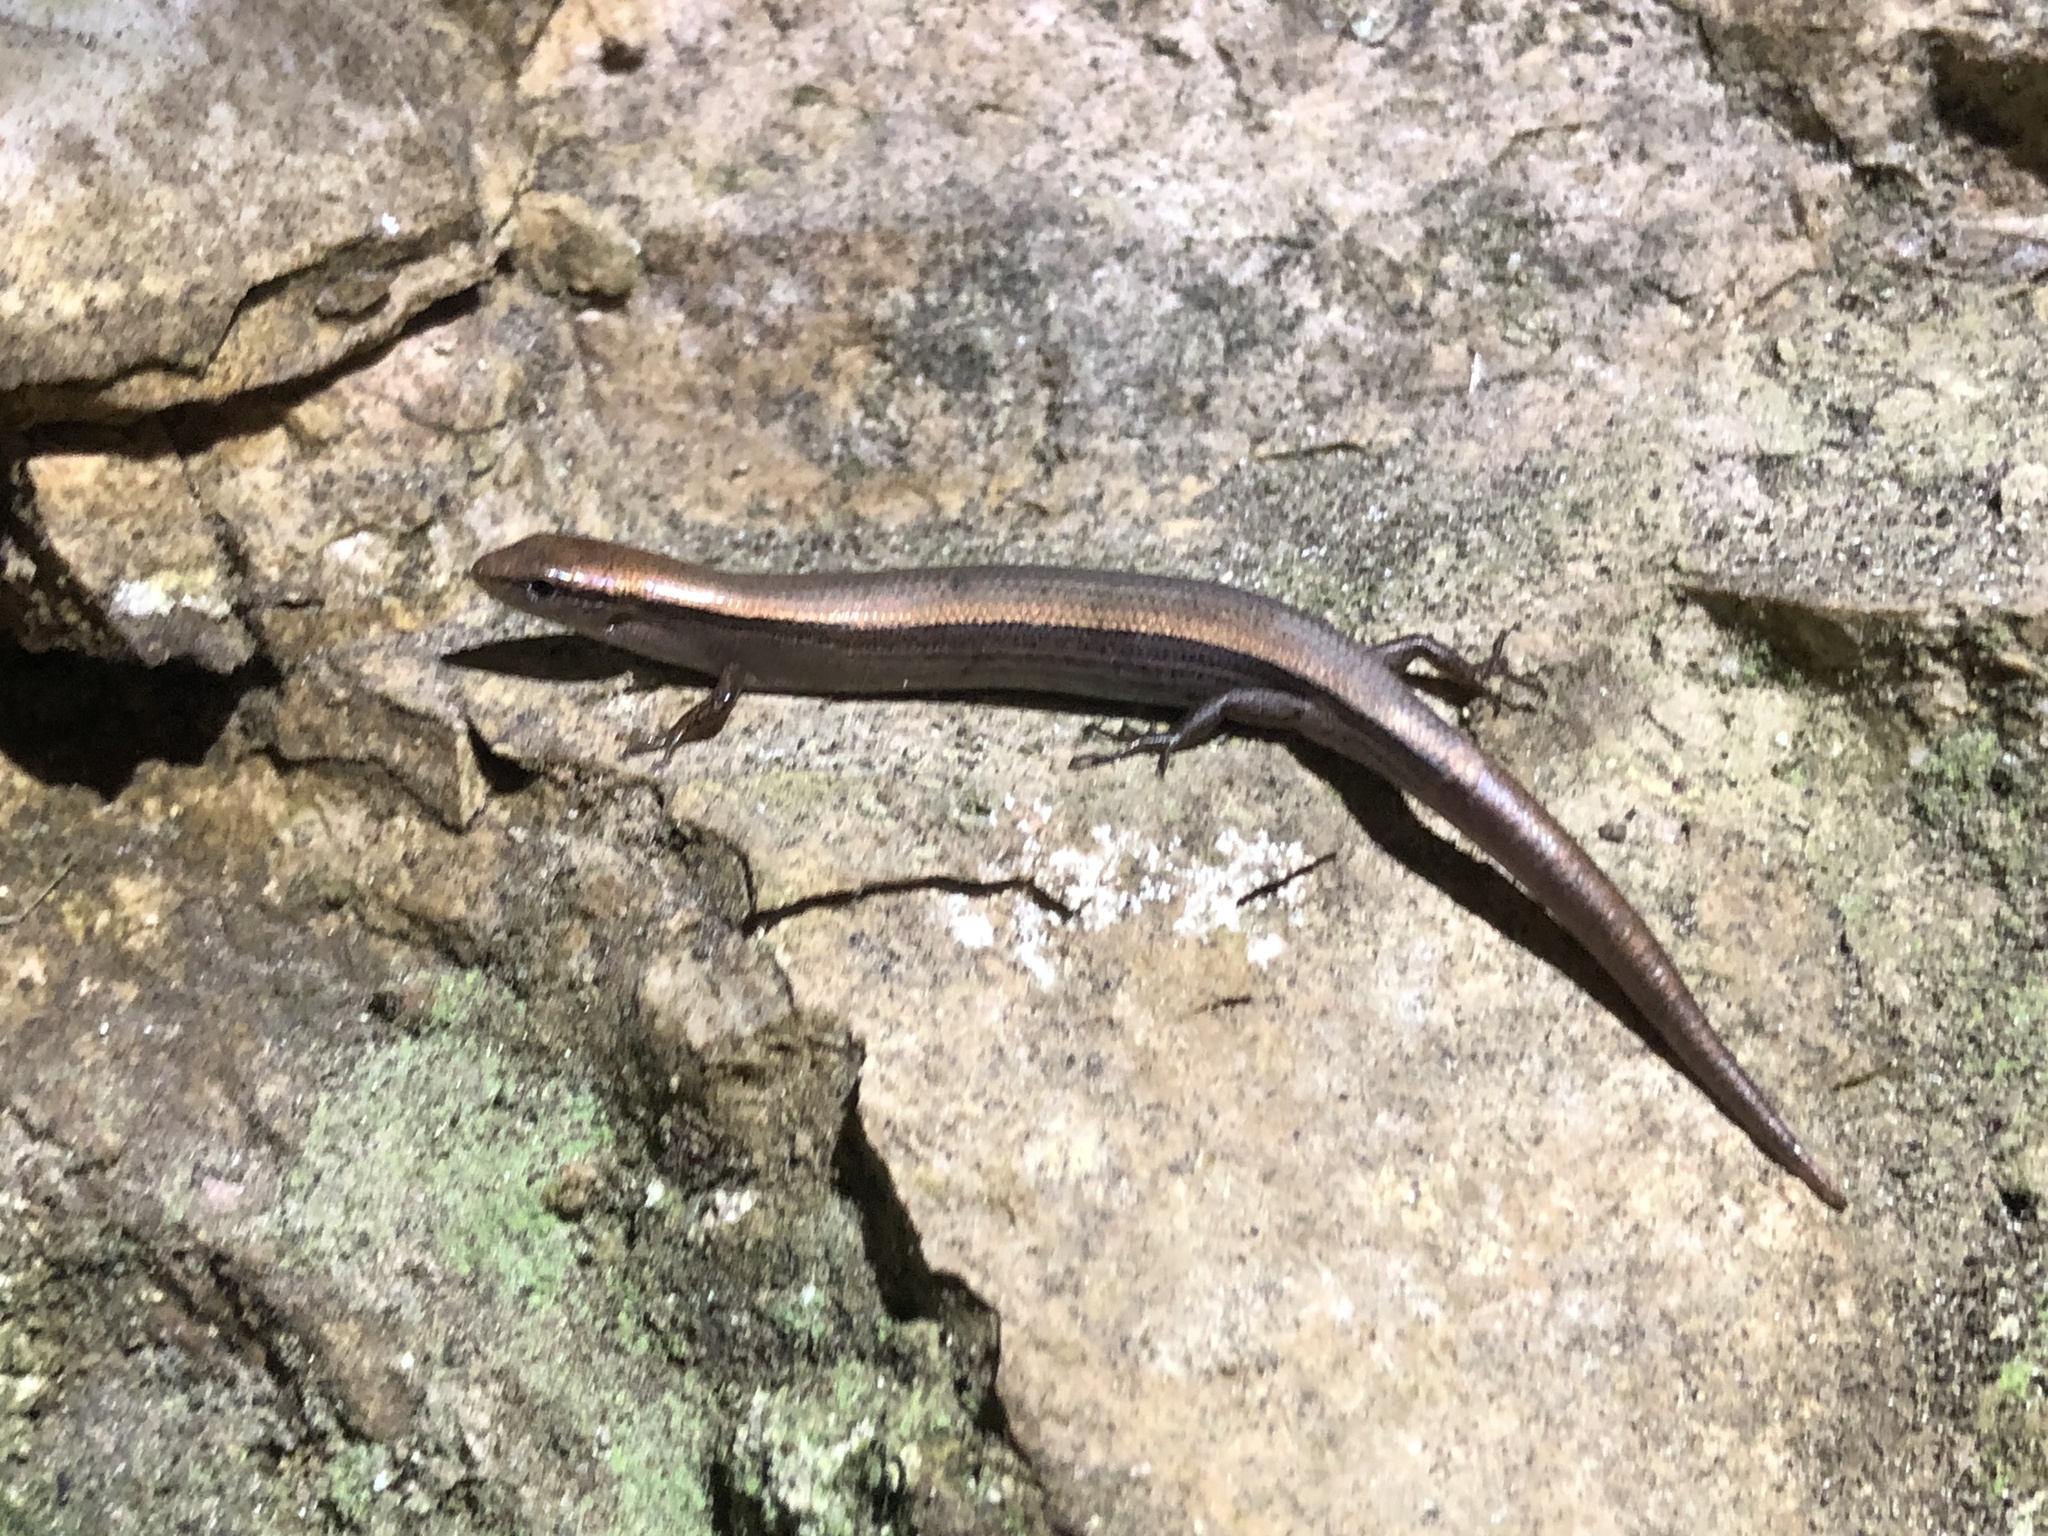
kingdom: Animalia
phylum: Chordata
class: Squamata
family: Scincidae
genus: Scincella
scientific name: Scincella lateralis
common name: Ground skink
